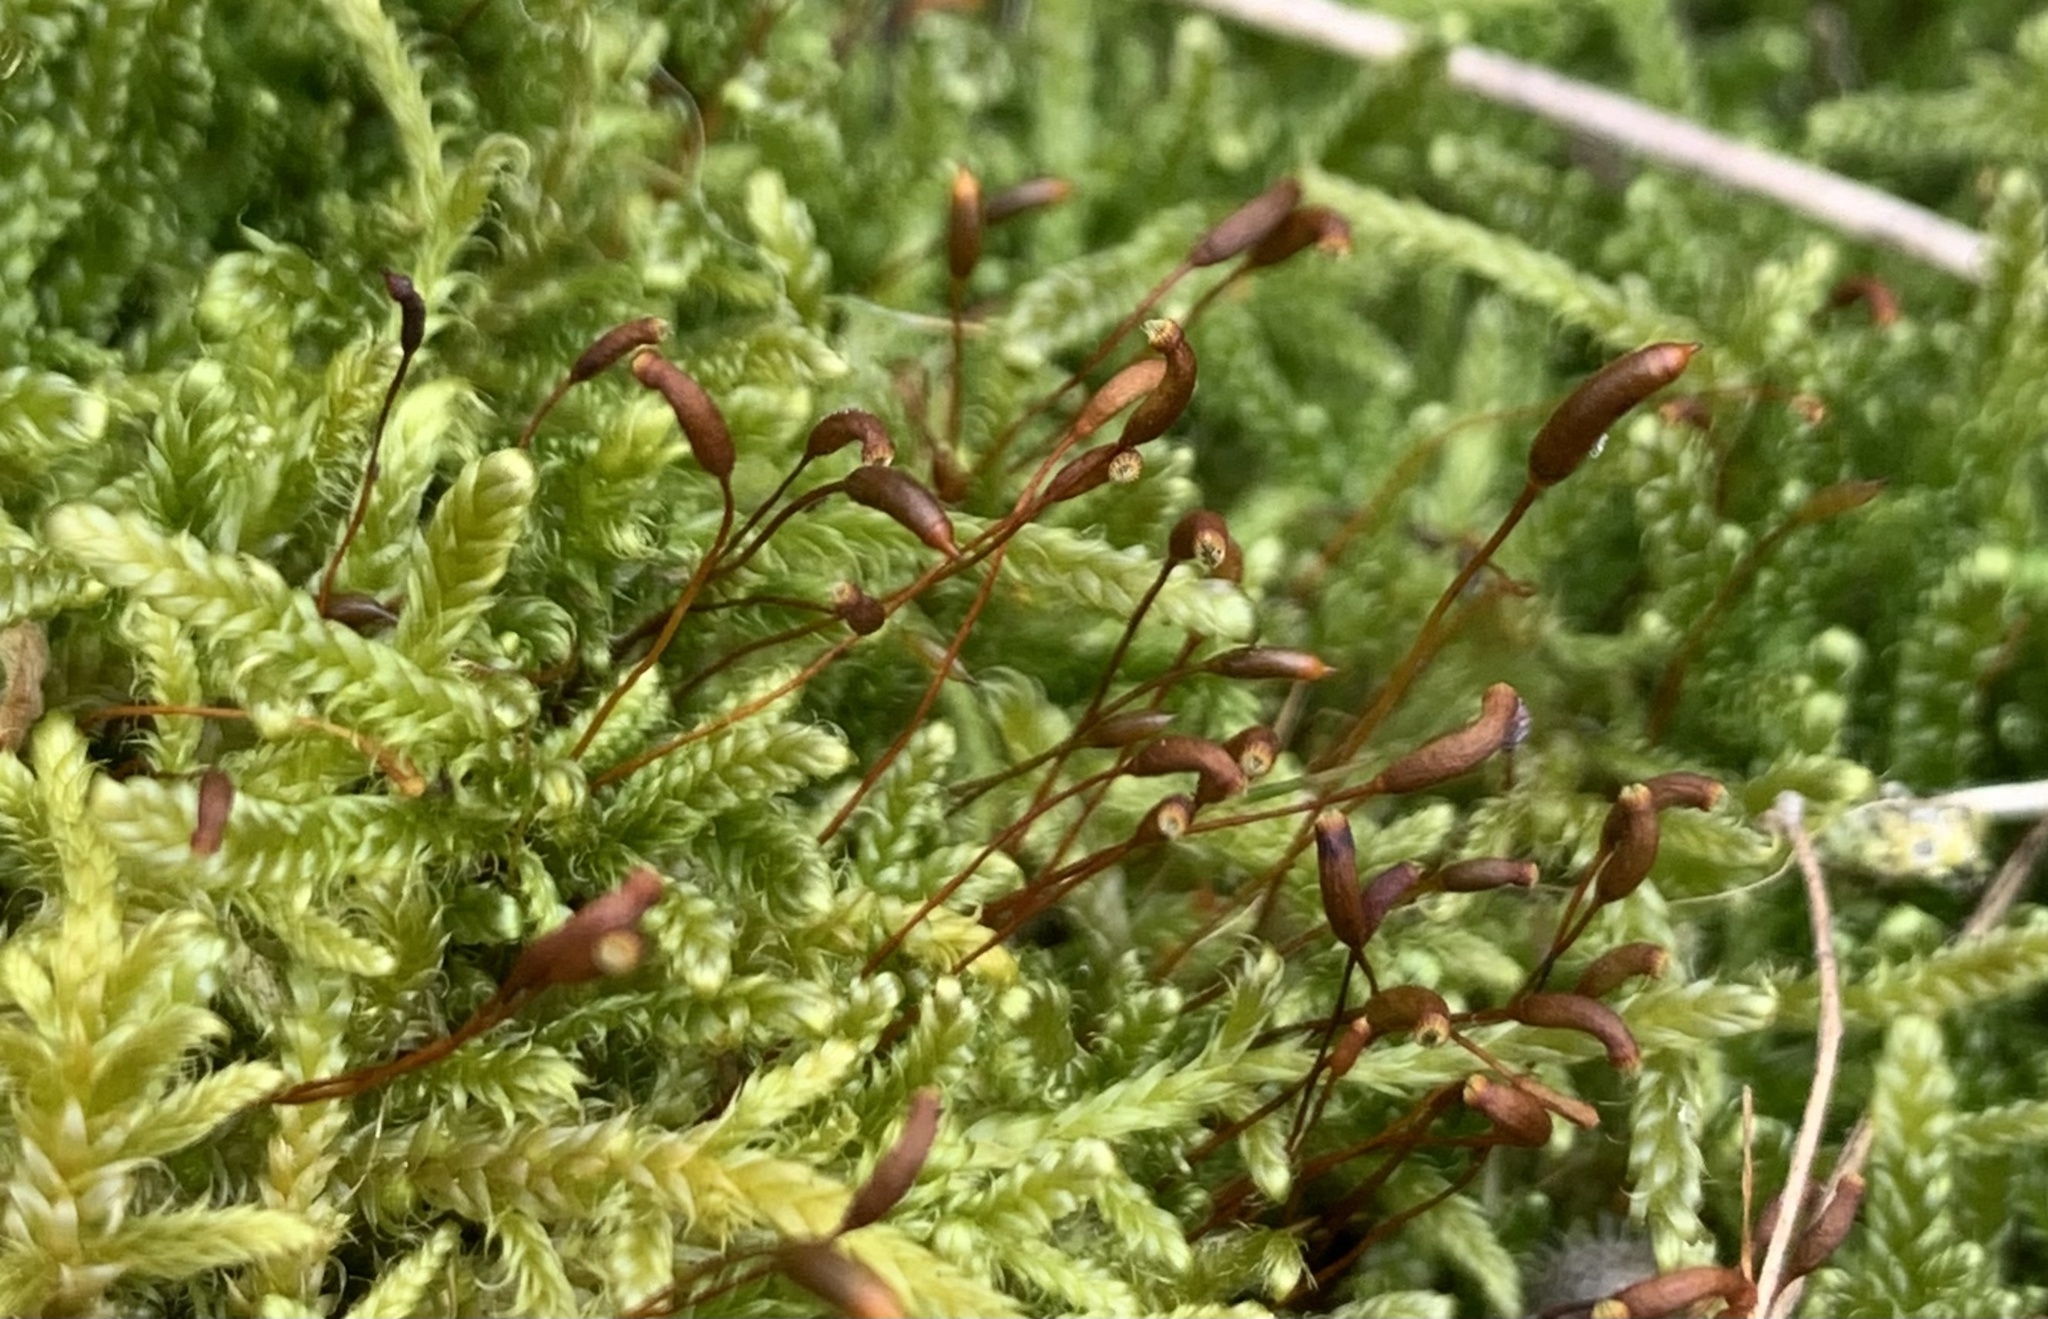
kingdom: Plantae
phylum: Bryophyta
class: Bryopsida
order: Hypnales
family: Hypnaceae
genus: Hypnum
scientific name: Hypnum cupressiforme
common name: Cypress-leaved plait-moss
